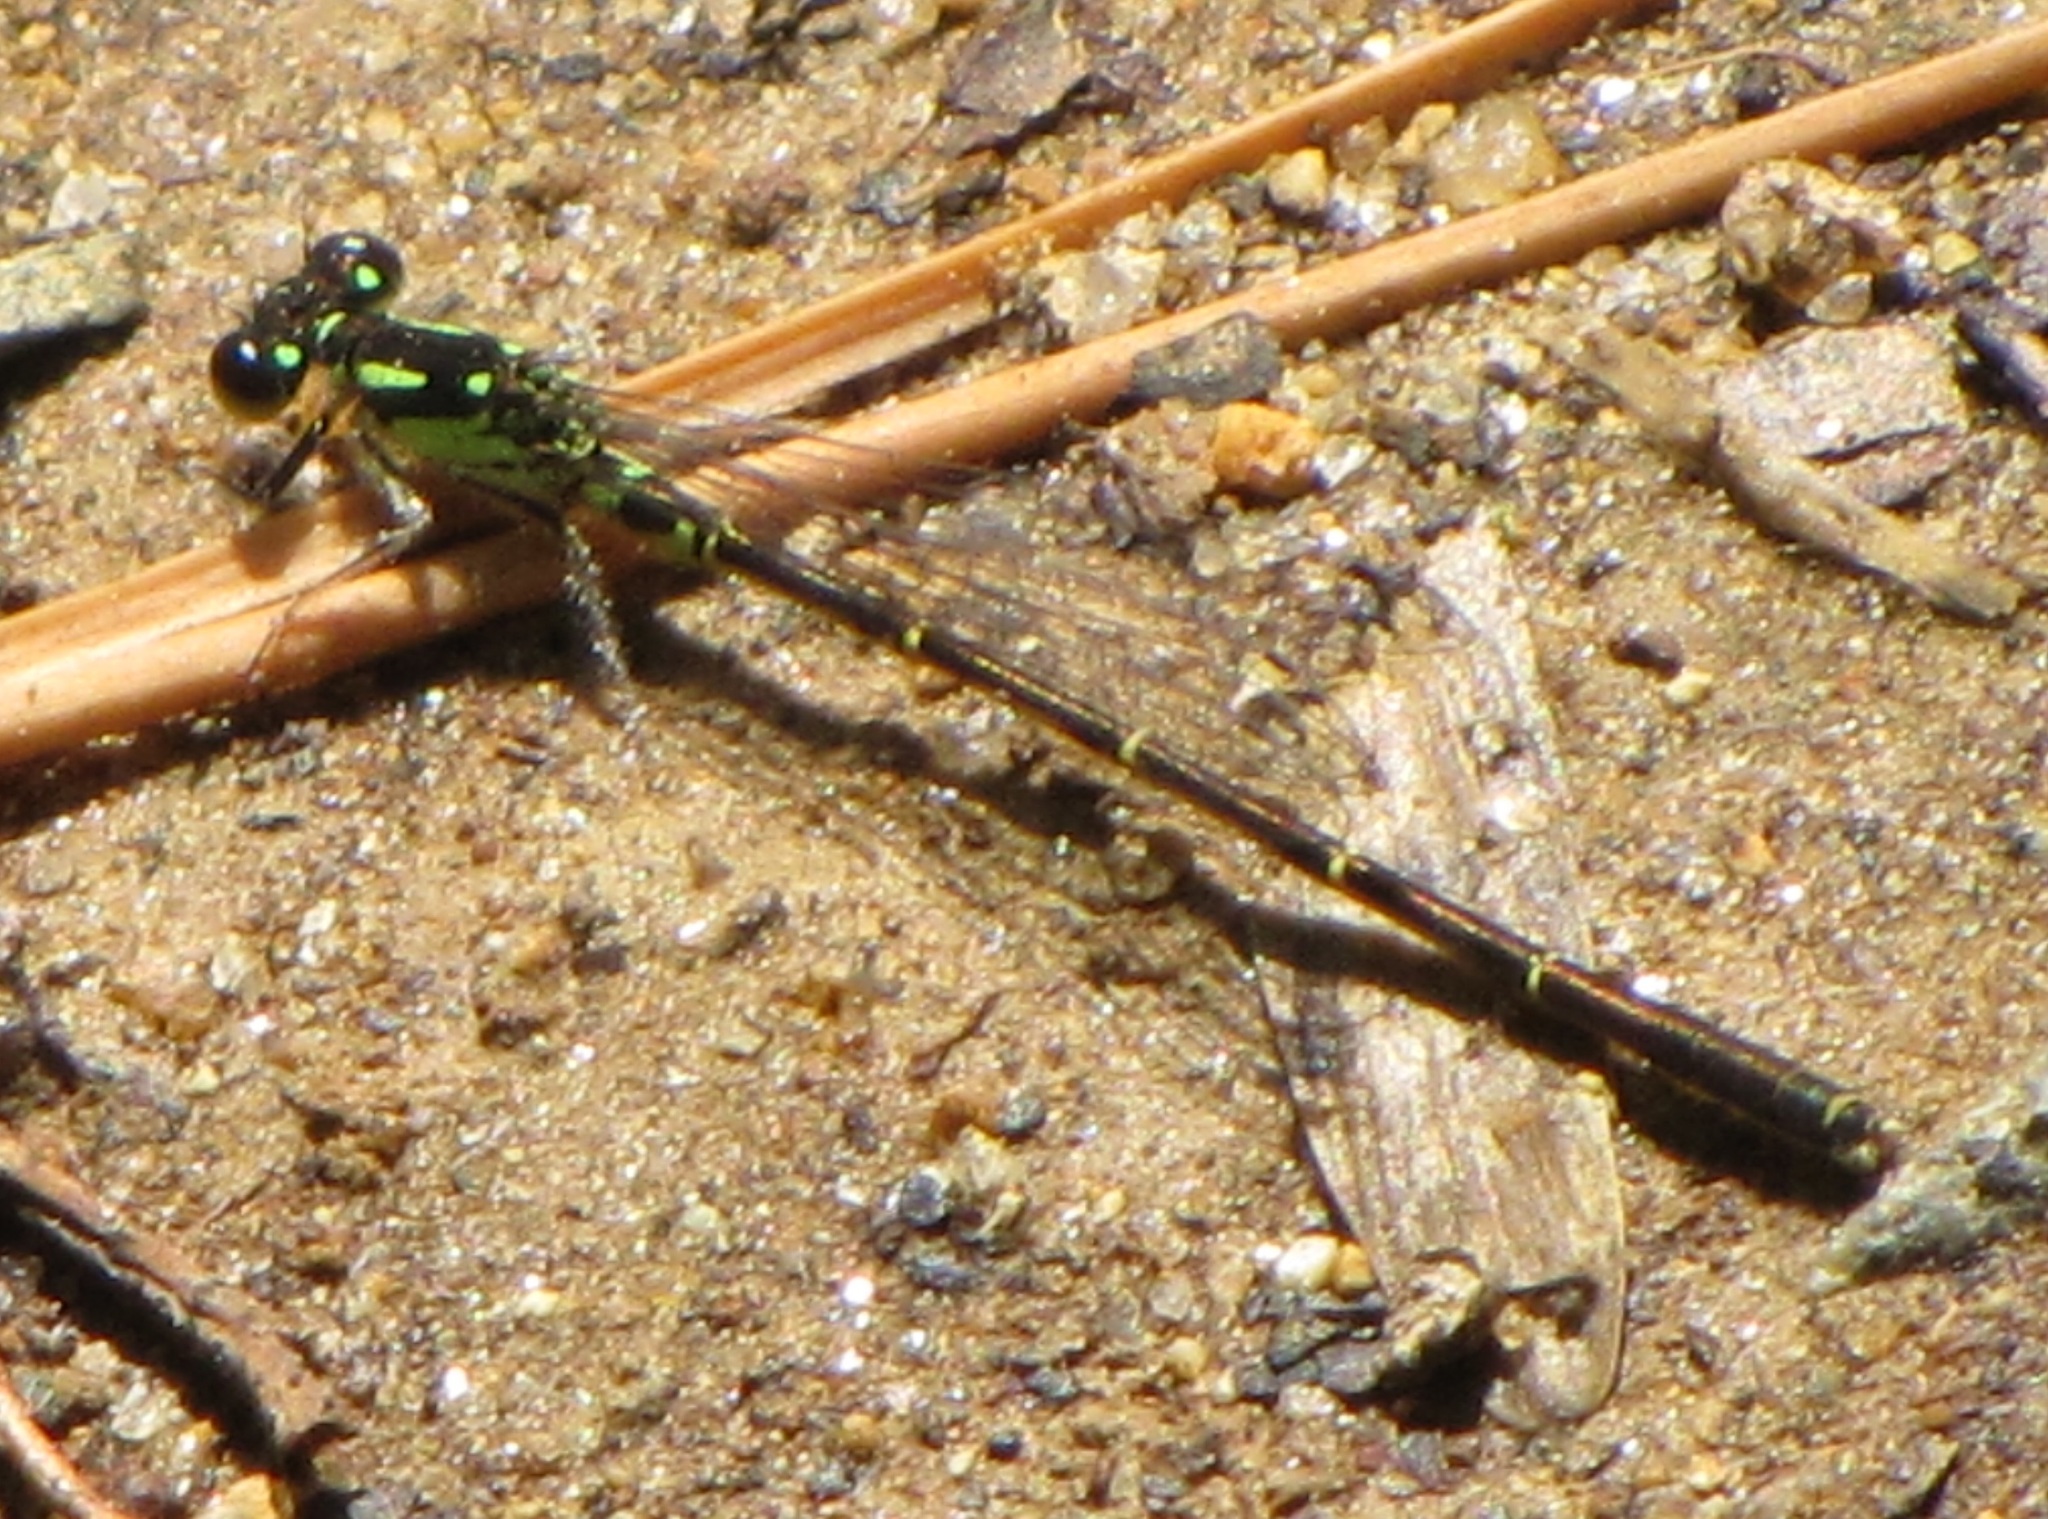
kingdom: Animalia
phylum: Arthropoda
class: Insecta
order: Odonata
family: Coenagrionidae
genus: Ischnura
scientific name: Ischnura posita
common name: Fragile forktail
